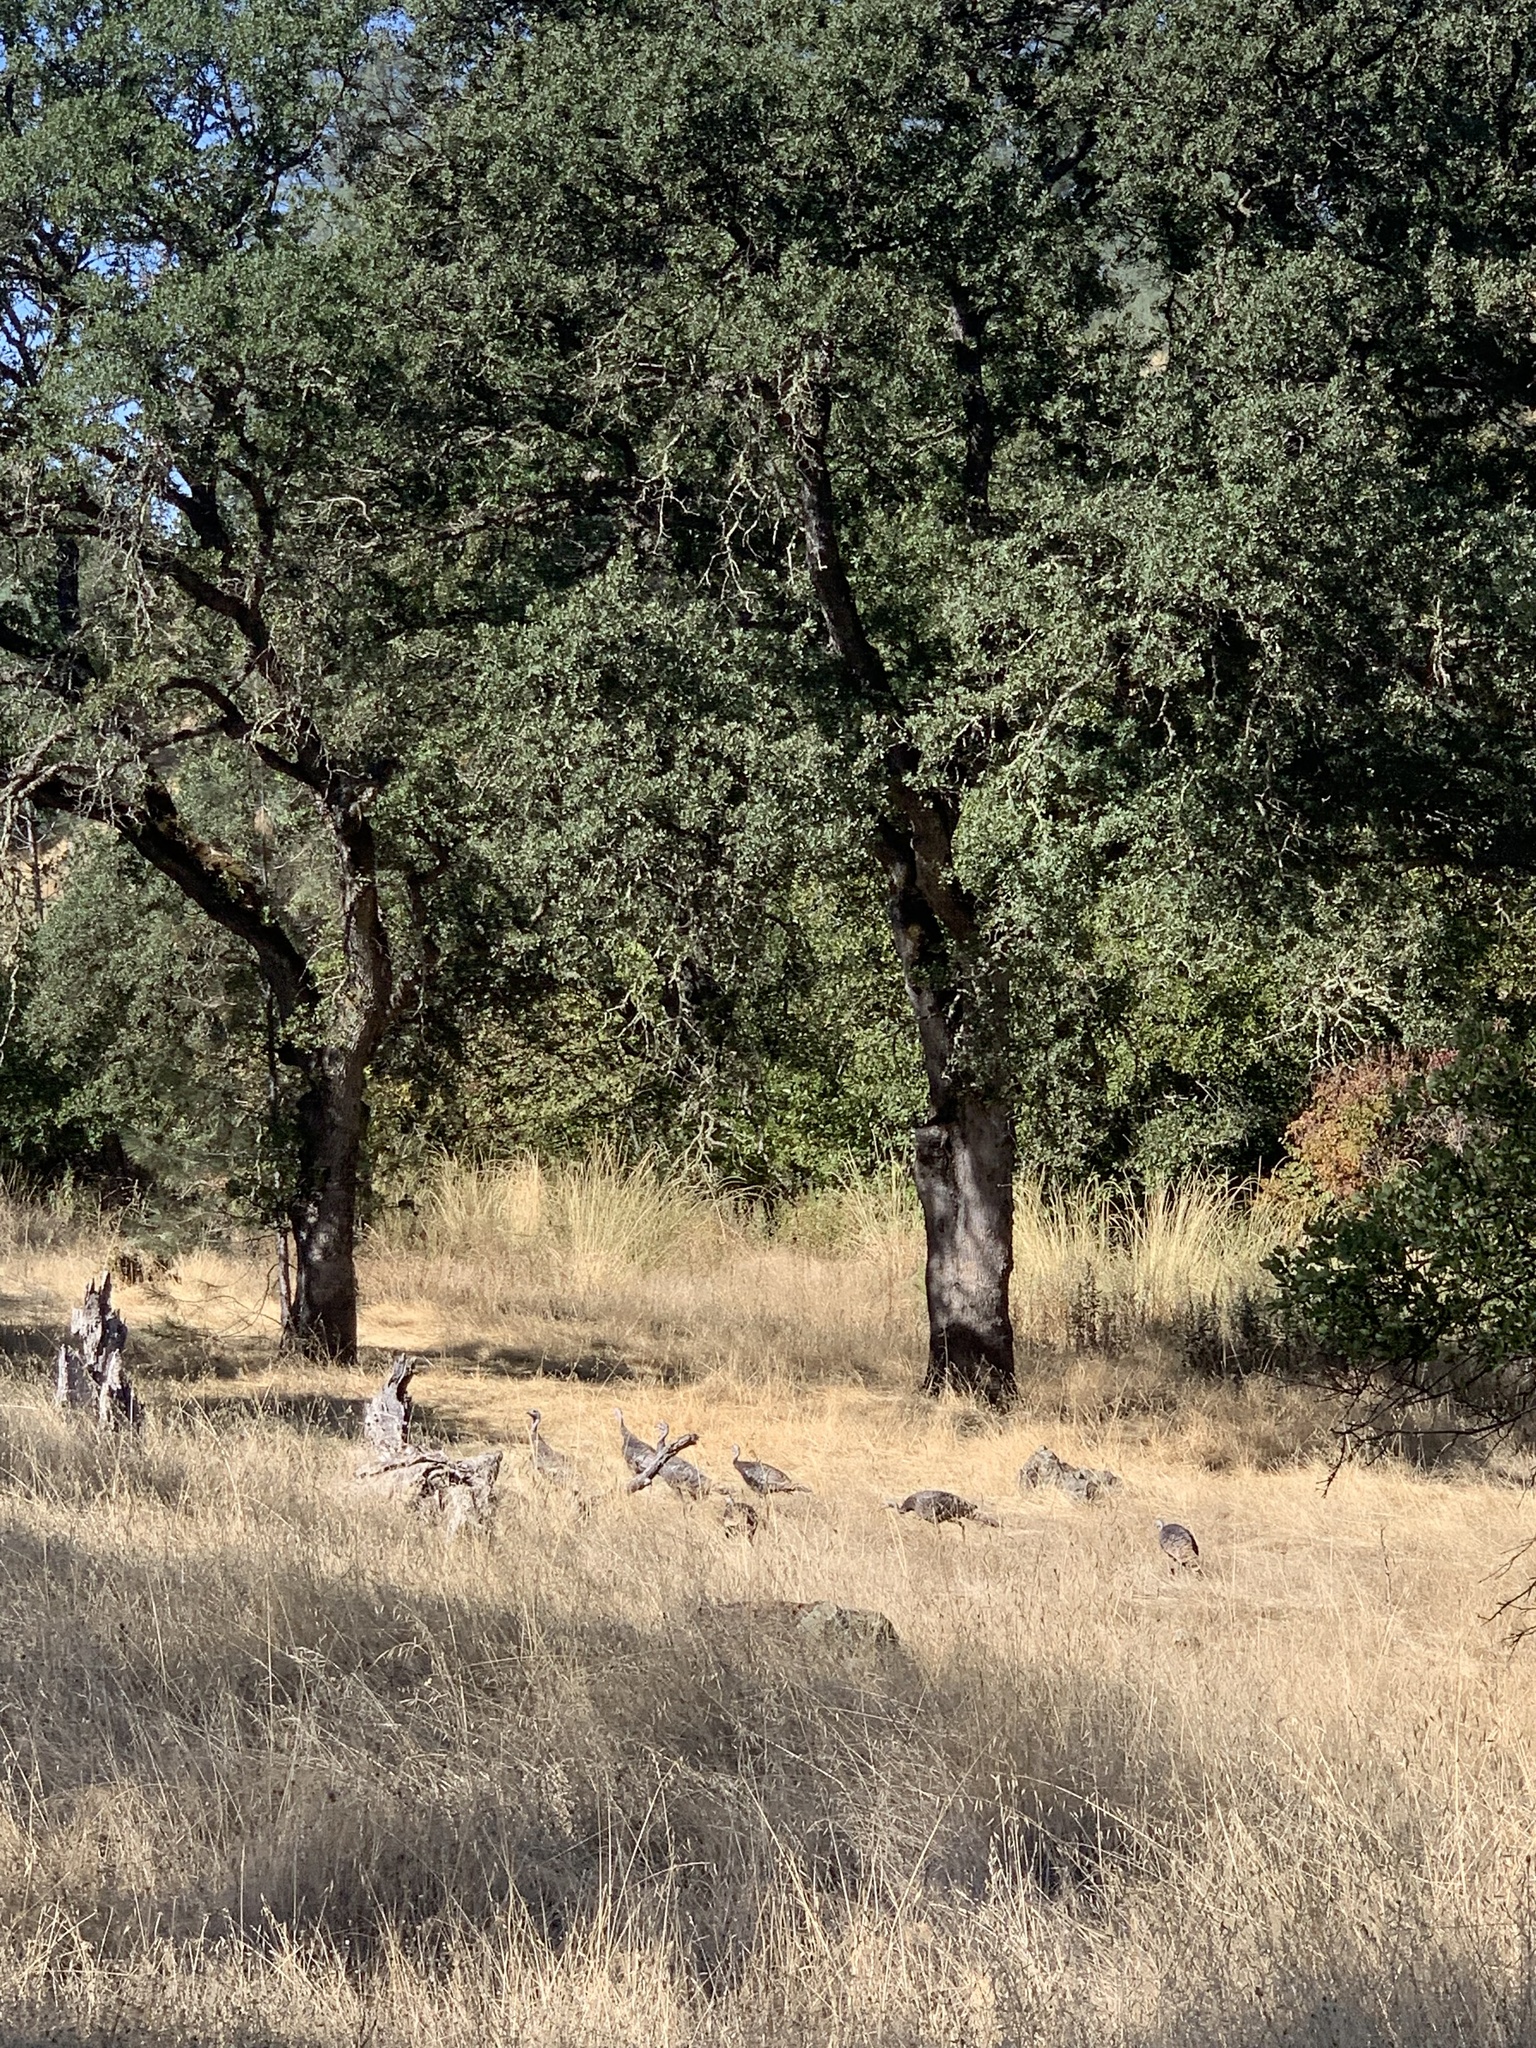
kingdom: Animalia
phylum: Chordata
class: Aves
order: Galliformes
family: Phasianidae
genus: Meleagris
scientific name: Meleagris gallopavo
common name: Wild turkey
